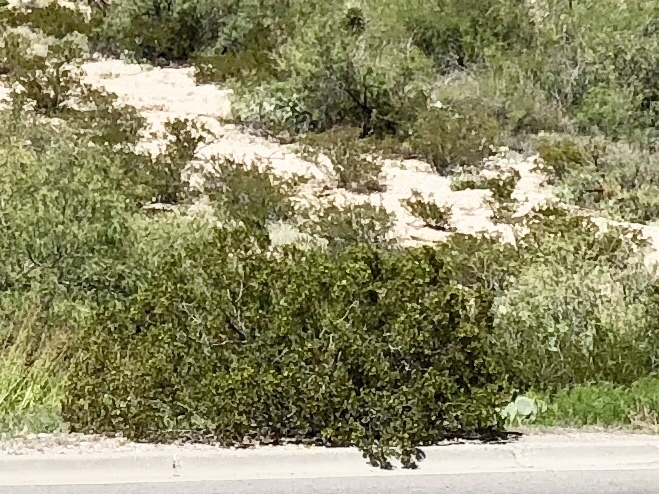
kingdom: Plantae
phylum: Tracheophyta
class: Magnoliopsida
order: Zygophyllales
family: Zygophyllaceae
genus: Larrea
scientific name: Larrea tridentata
